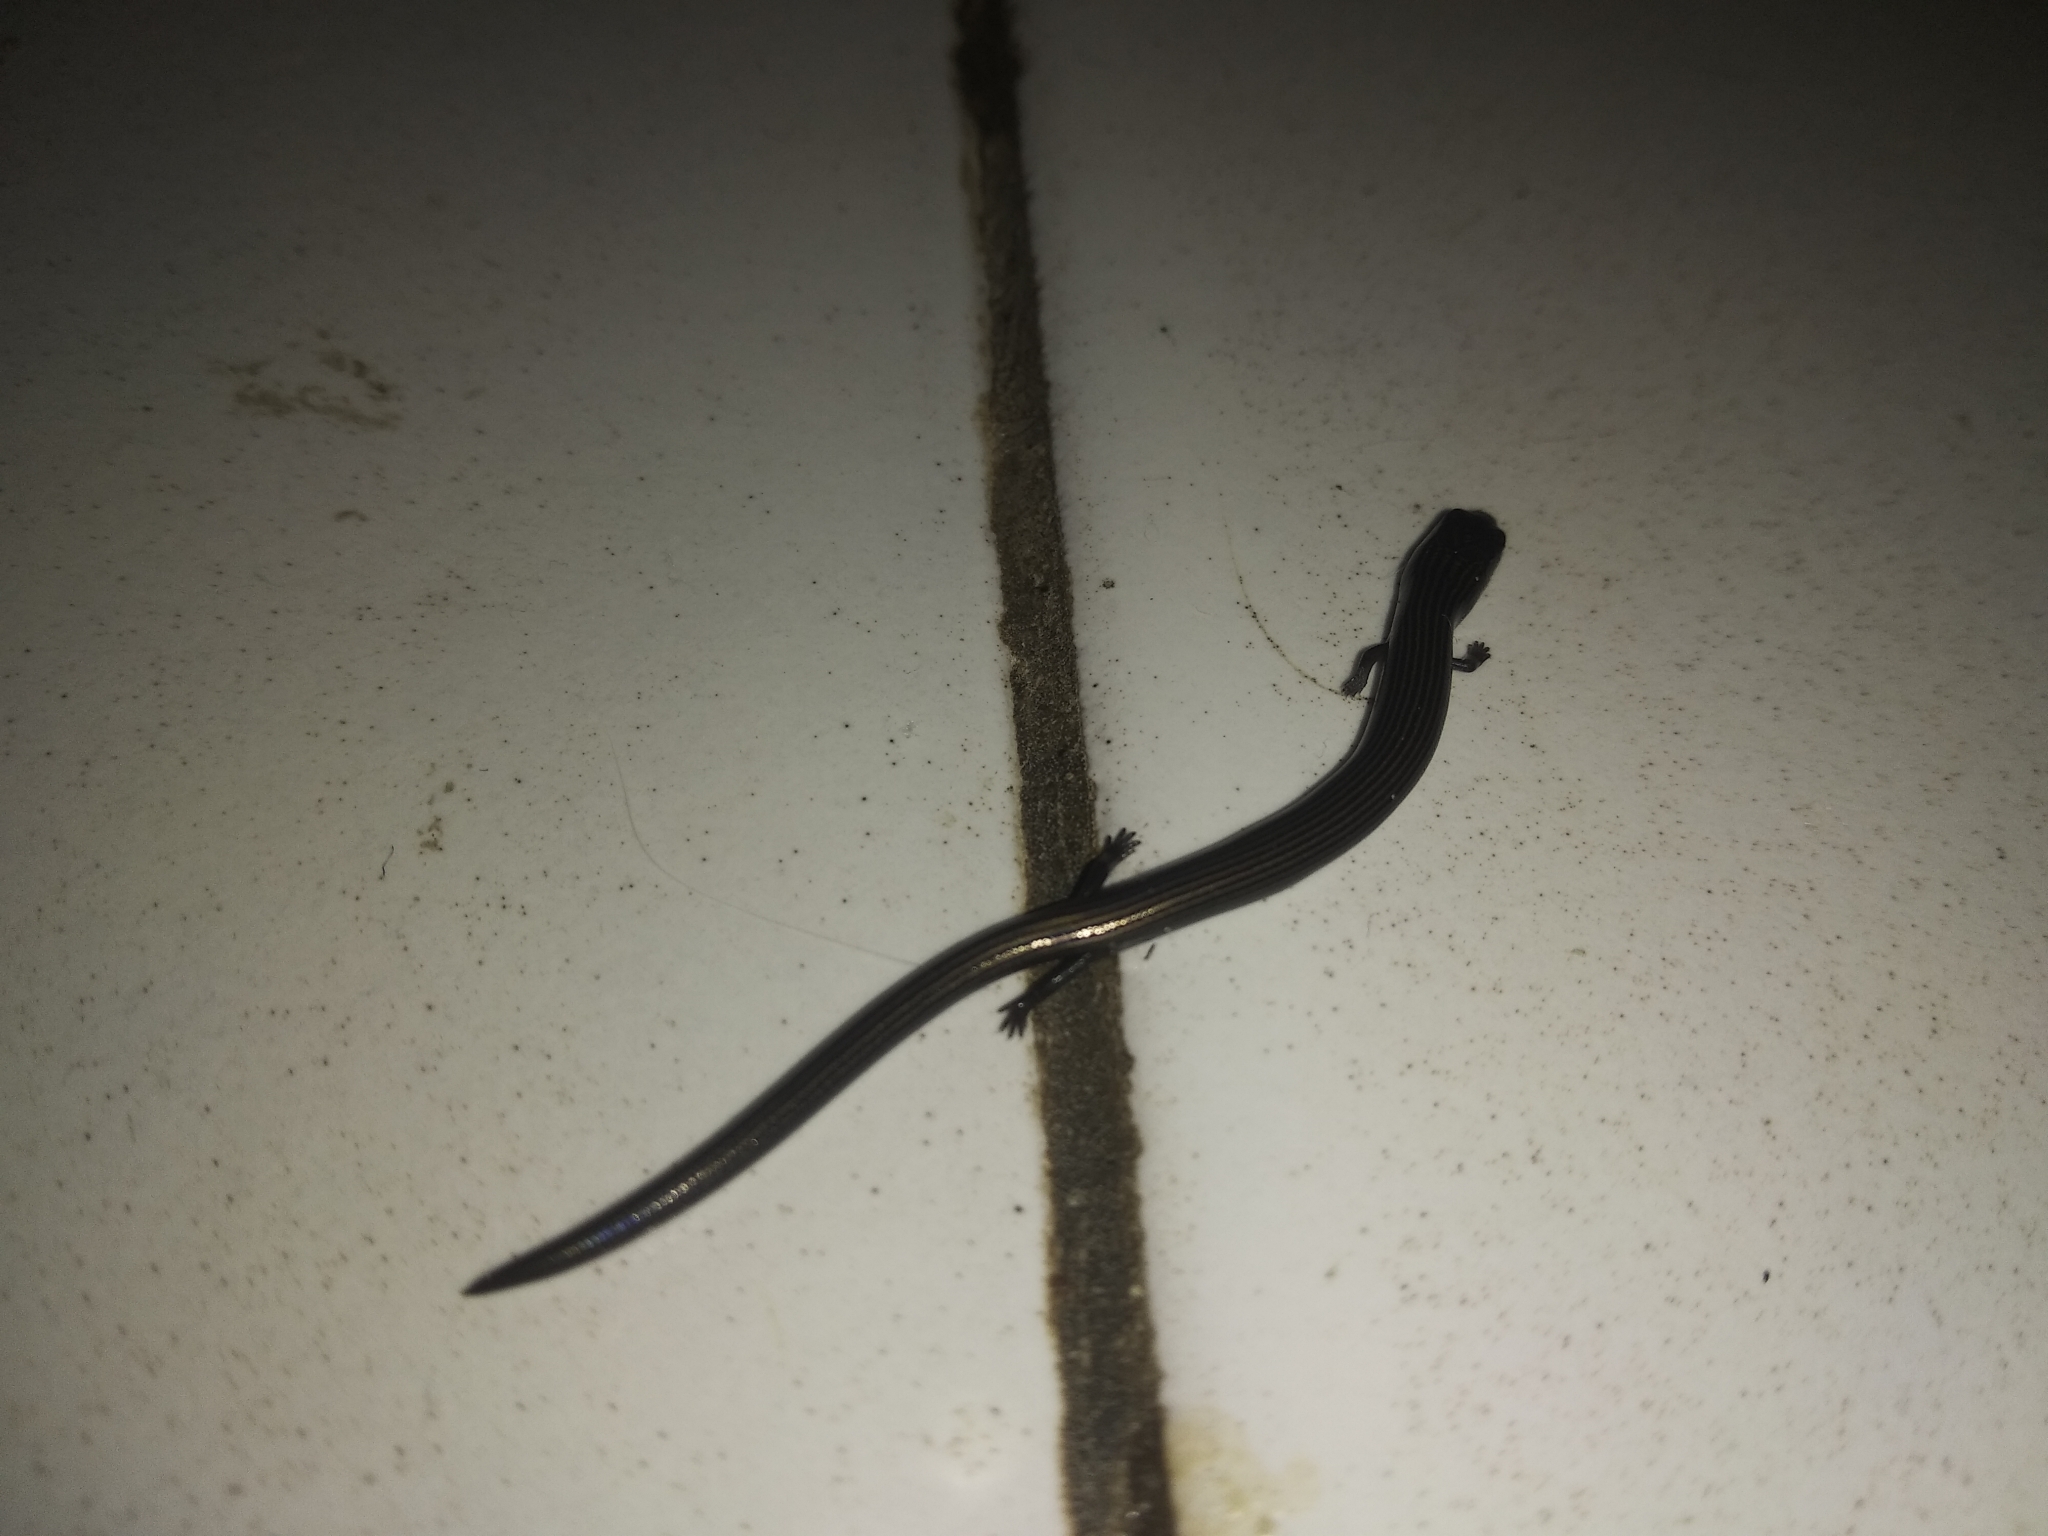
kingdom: Animalia
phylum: Chordata
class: Squamata
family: Scincidae
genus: Lygosoma
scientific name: Lygosoma quadrupes
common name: Linnaeus' writhing skink
